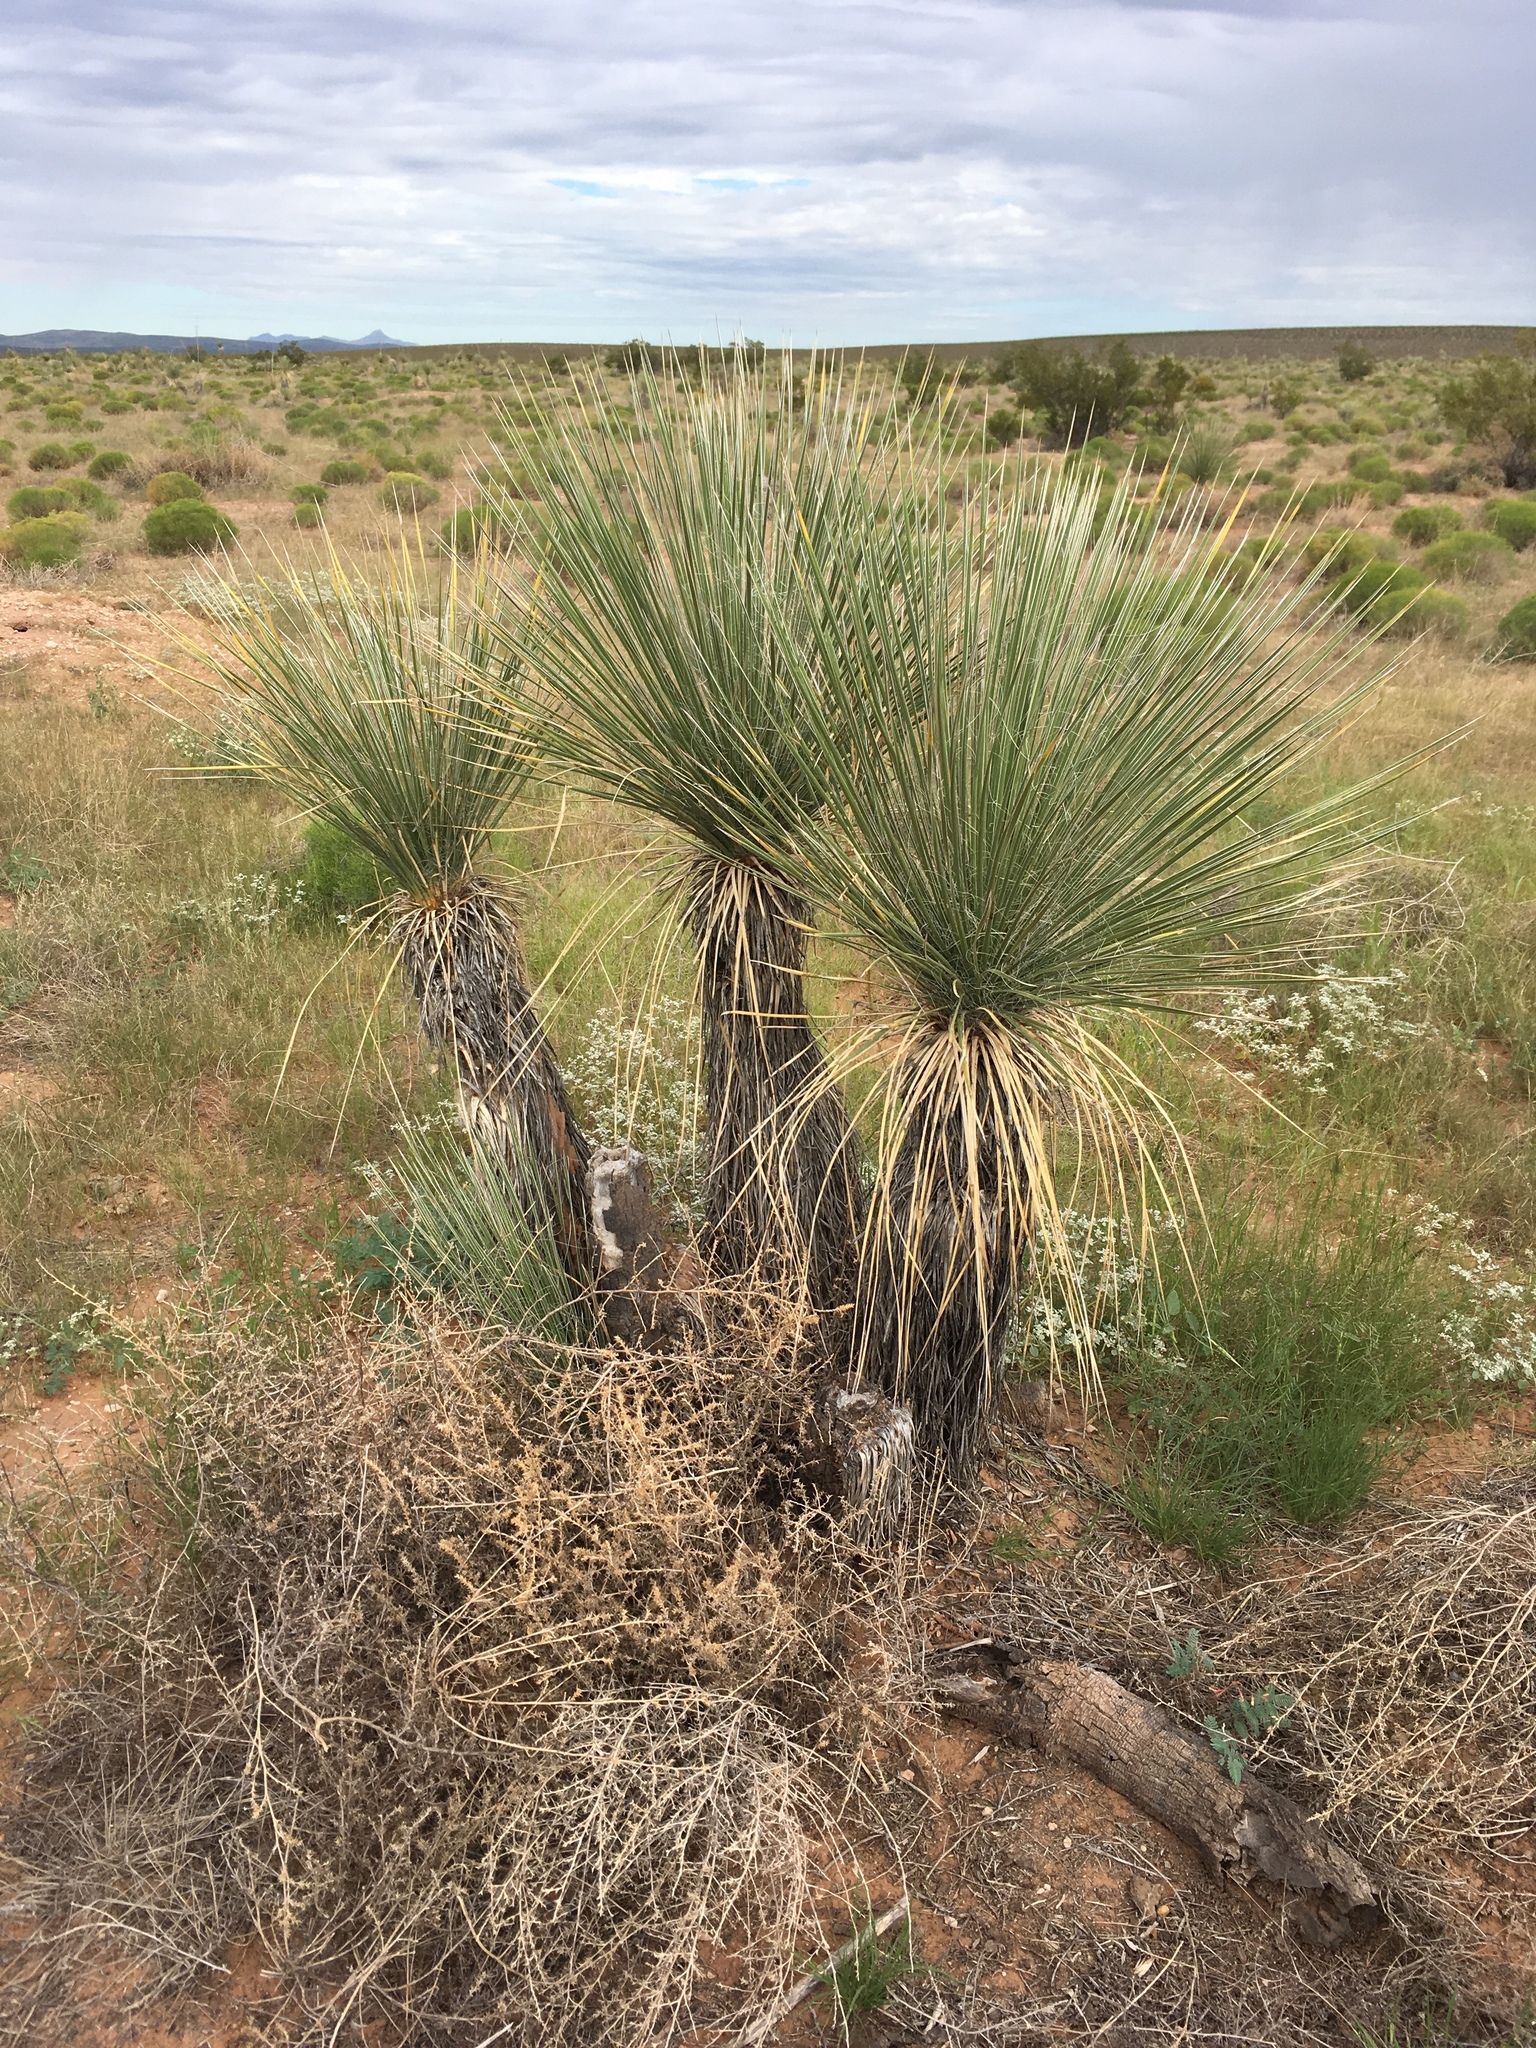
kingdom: Plantae
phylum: Tracheophyta
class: Liliopsida
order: Asparagales
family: Asparagaceae
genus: Yucca
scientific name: Yucca elata
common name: Palmella
